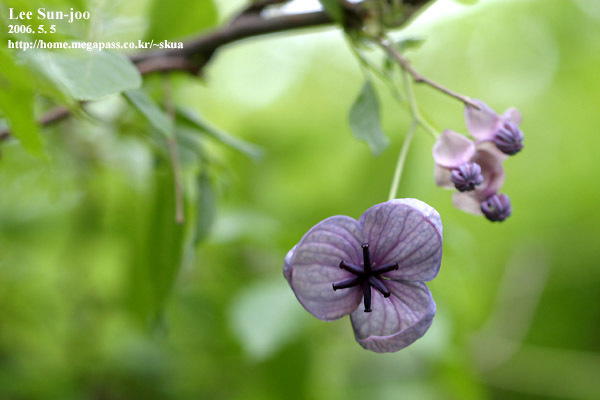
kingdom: Plantae
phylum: Tracheophyta
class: Magnoliopsida
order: Ranunculales
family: Lardizabalaceae
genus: Akebia
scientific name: Akebia quinata
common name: Five-leaf akebia
